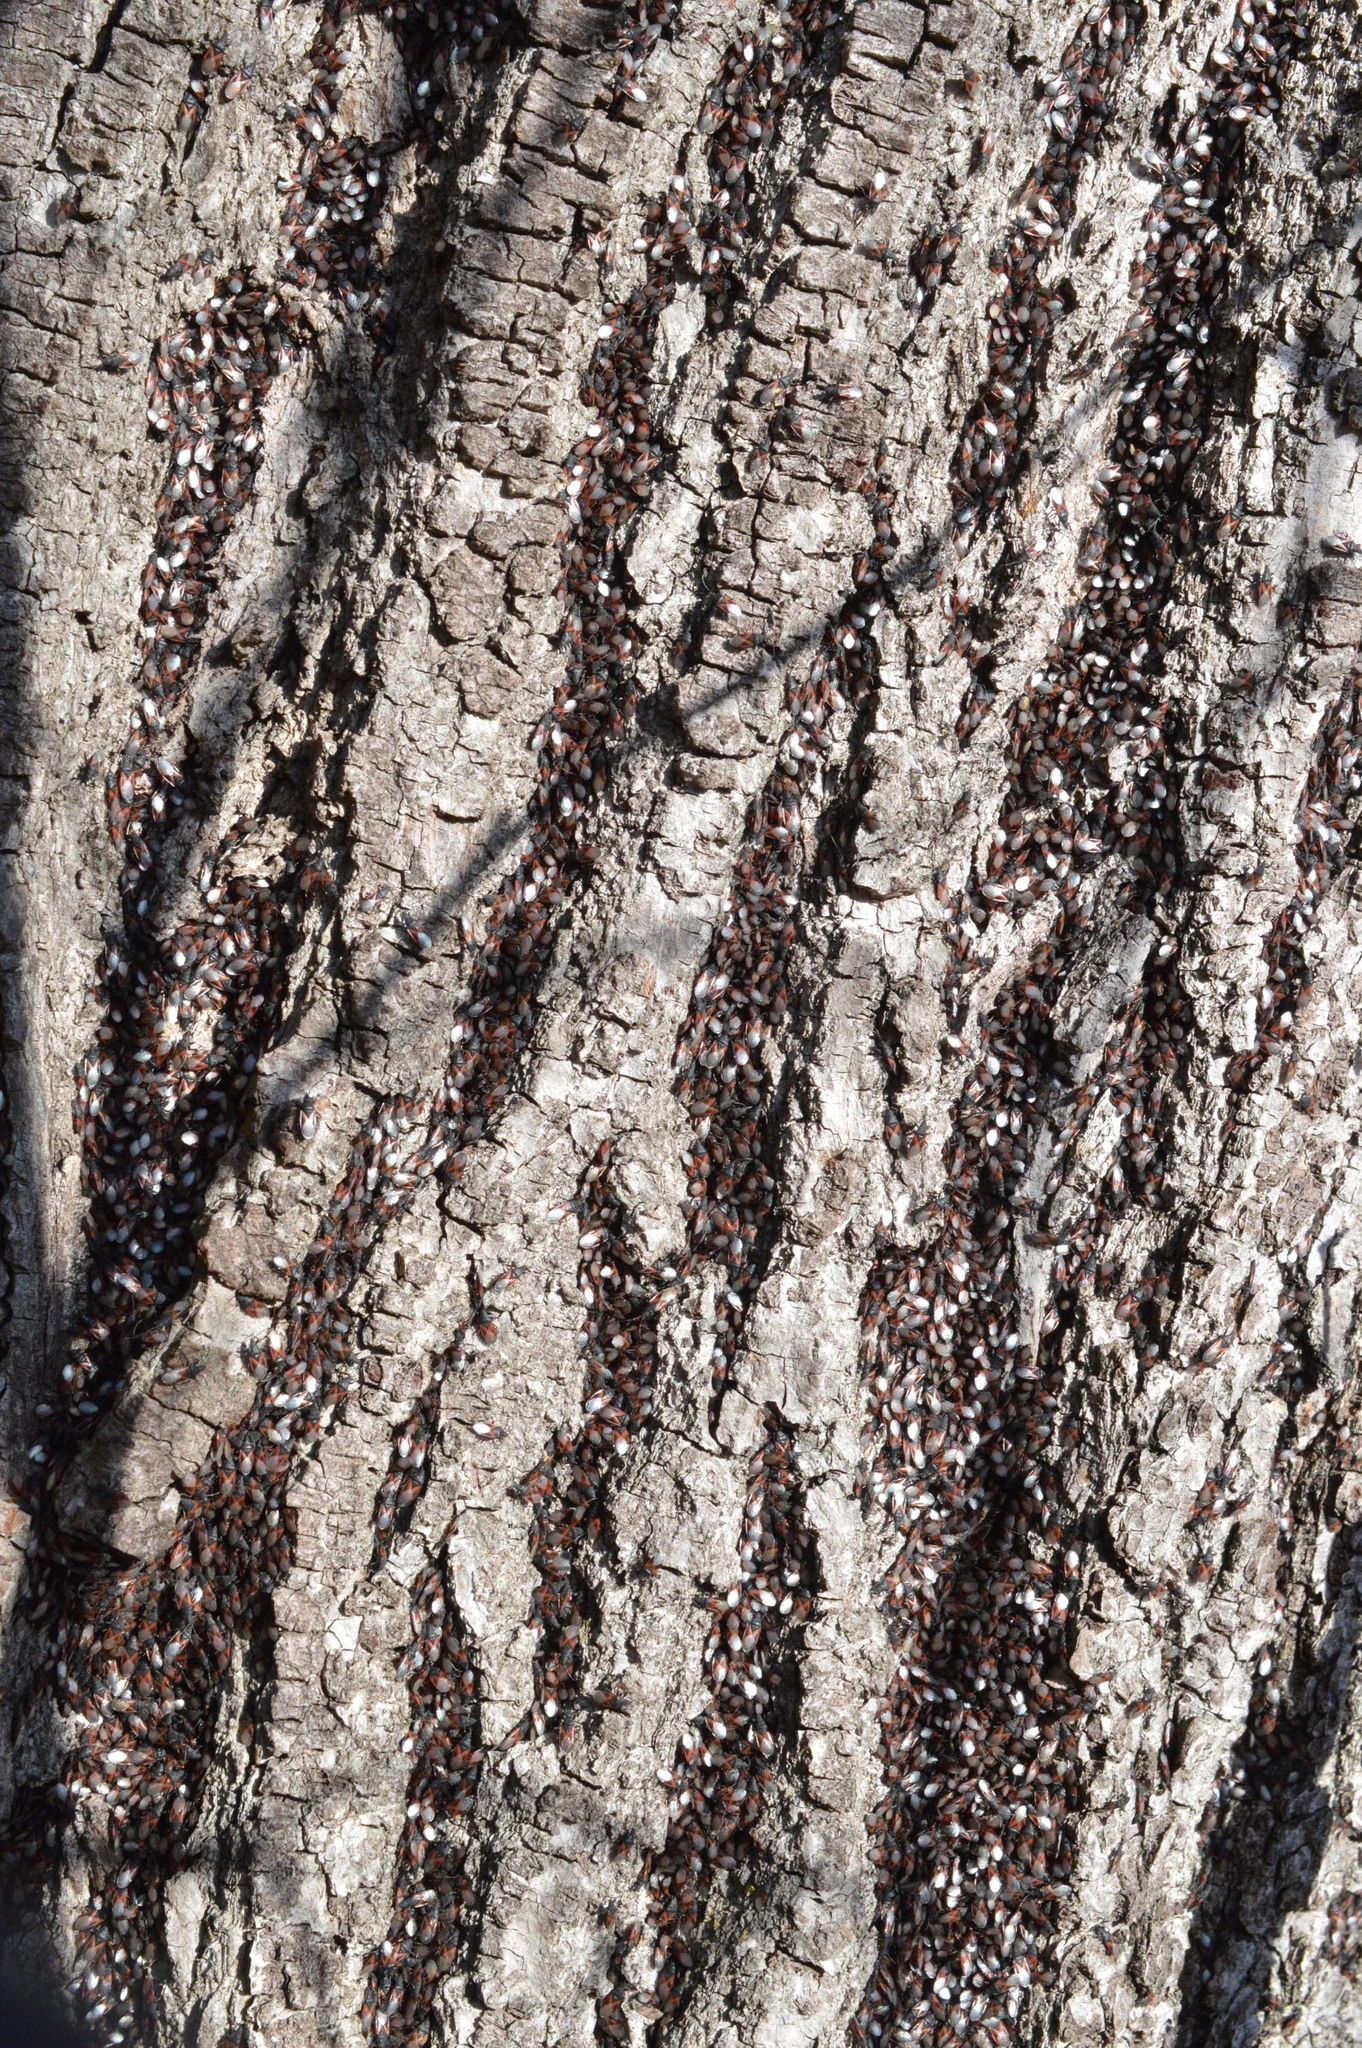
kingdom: Animalia
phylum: Arthropoda
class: Insecta
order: Hemiptera
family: Oxycarenidae
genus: Oxycarenus
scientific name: Oxycarenus lavaterae
